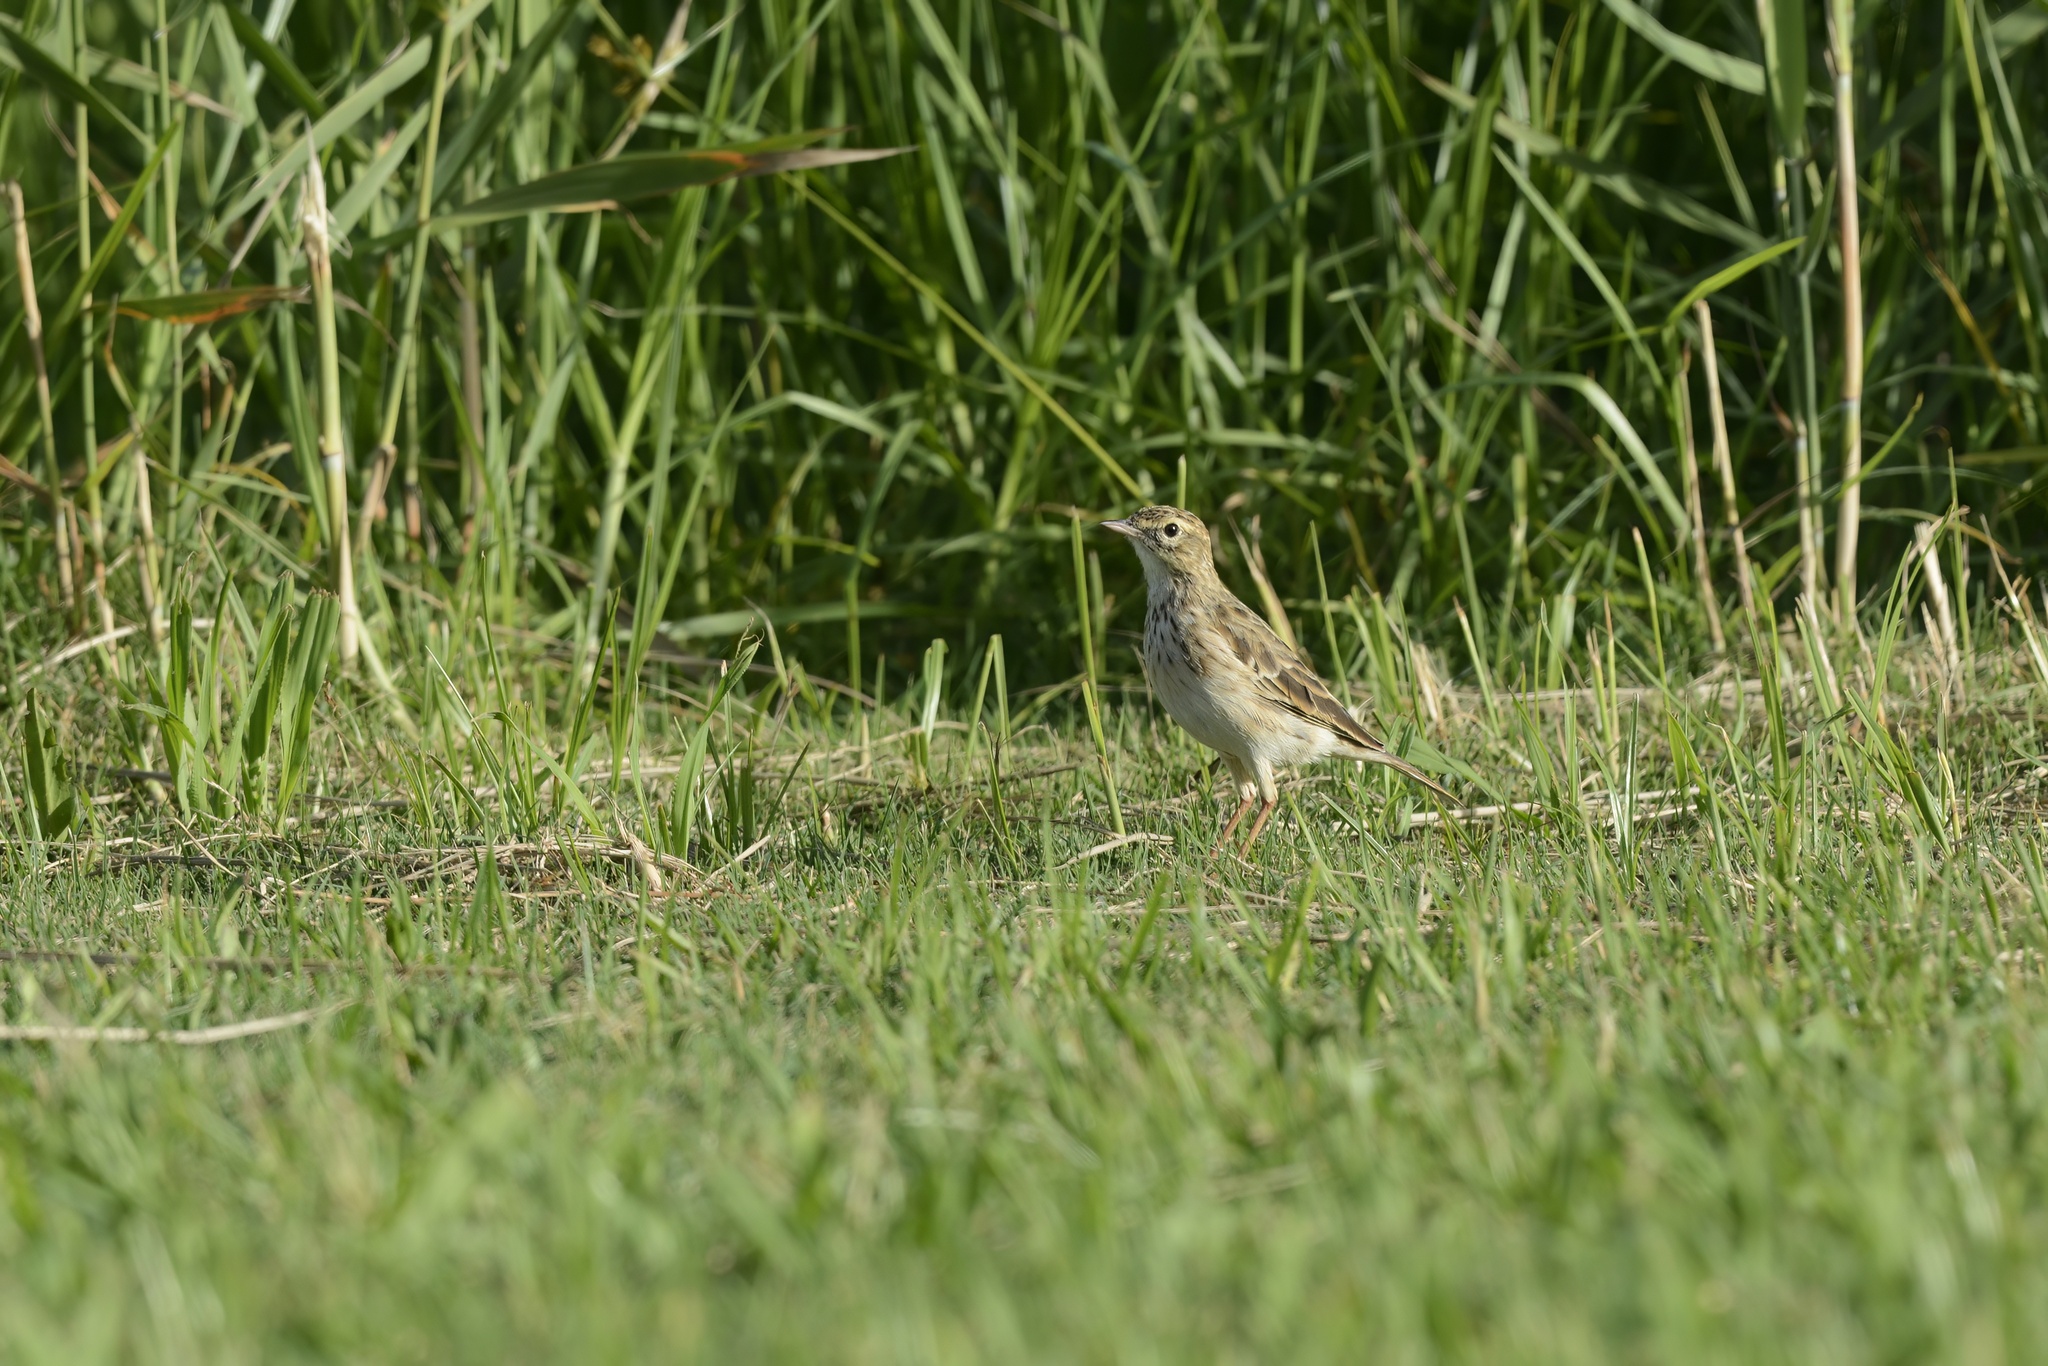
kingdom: Animalia
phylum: Chordata
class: Aves
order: Passeriformes
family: Motacillidae
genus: Anthus
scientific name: Anthus australis
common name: Australian pipit
